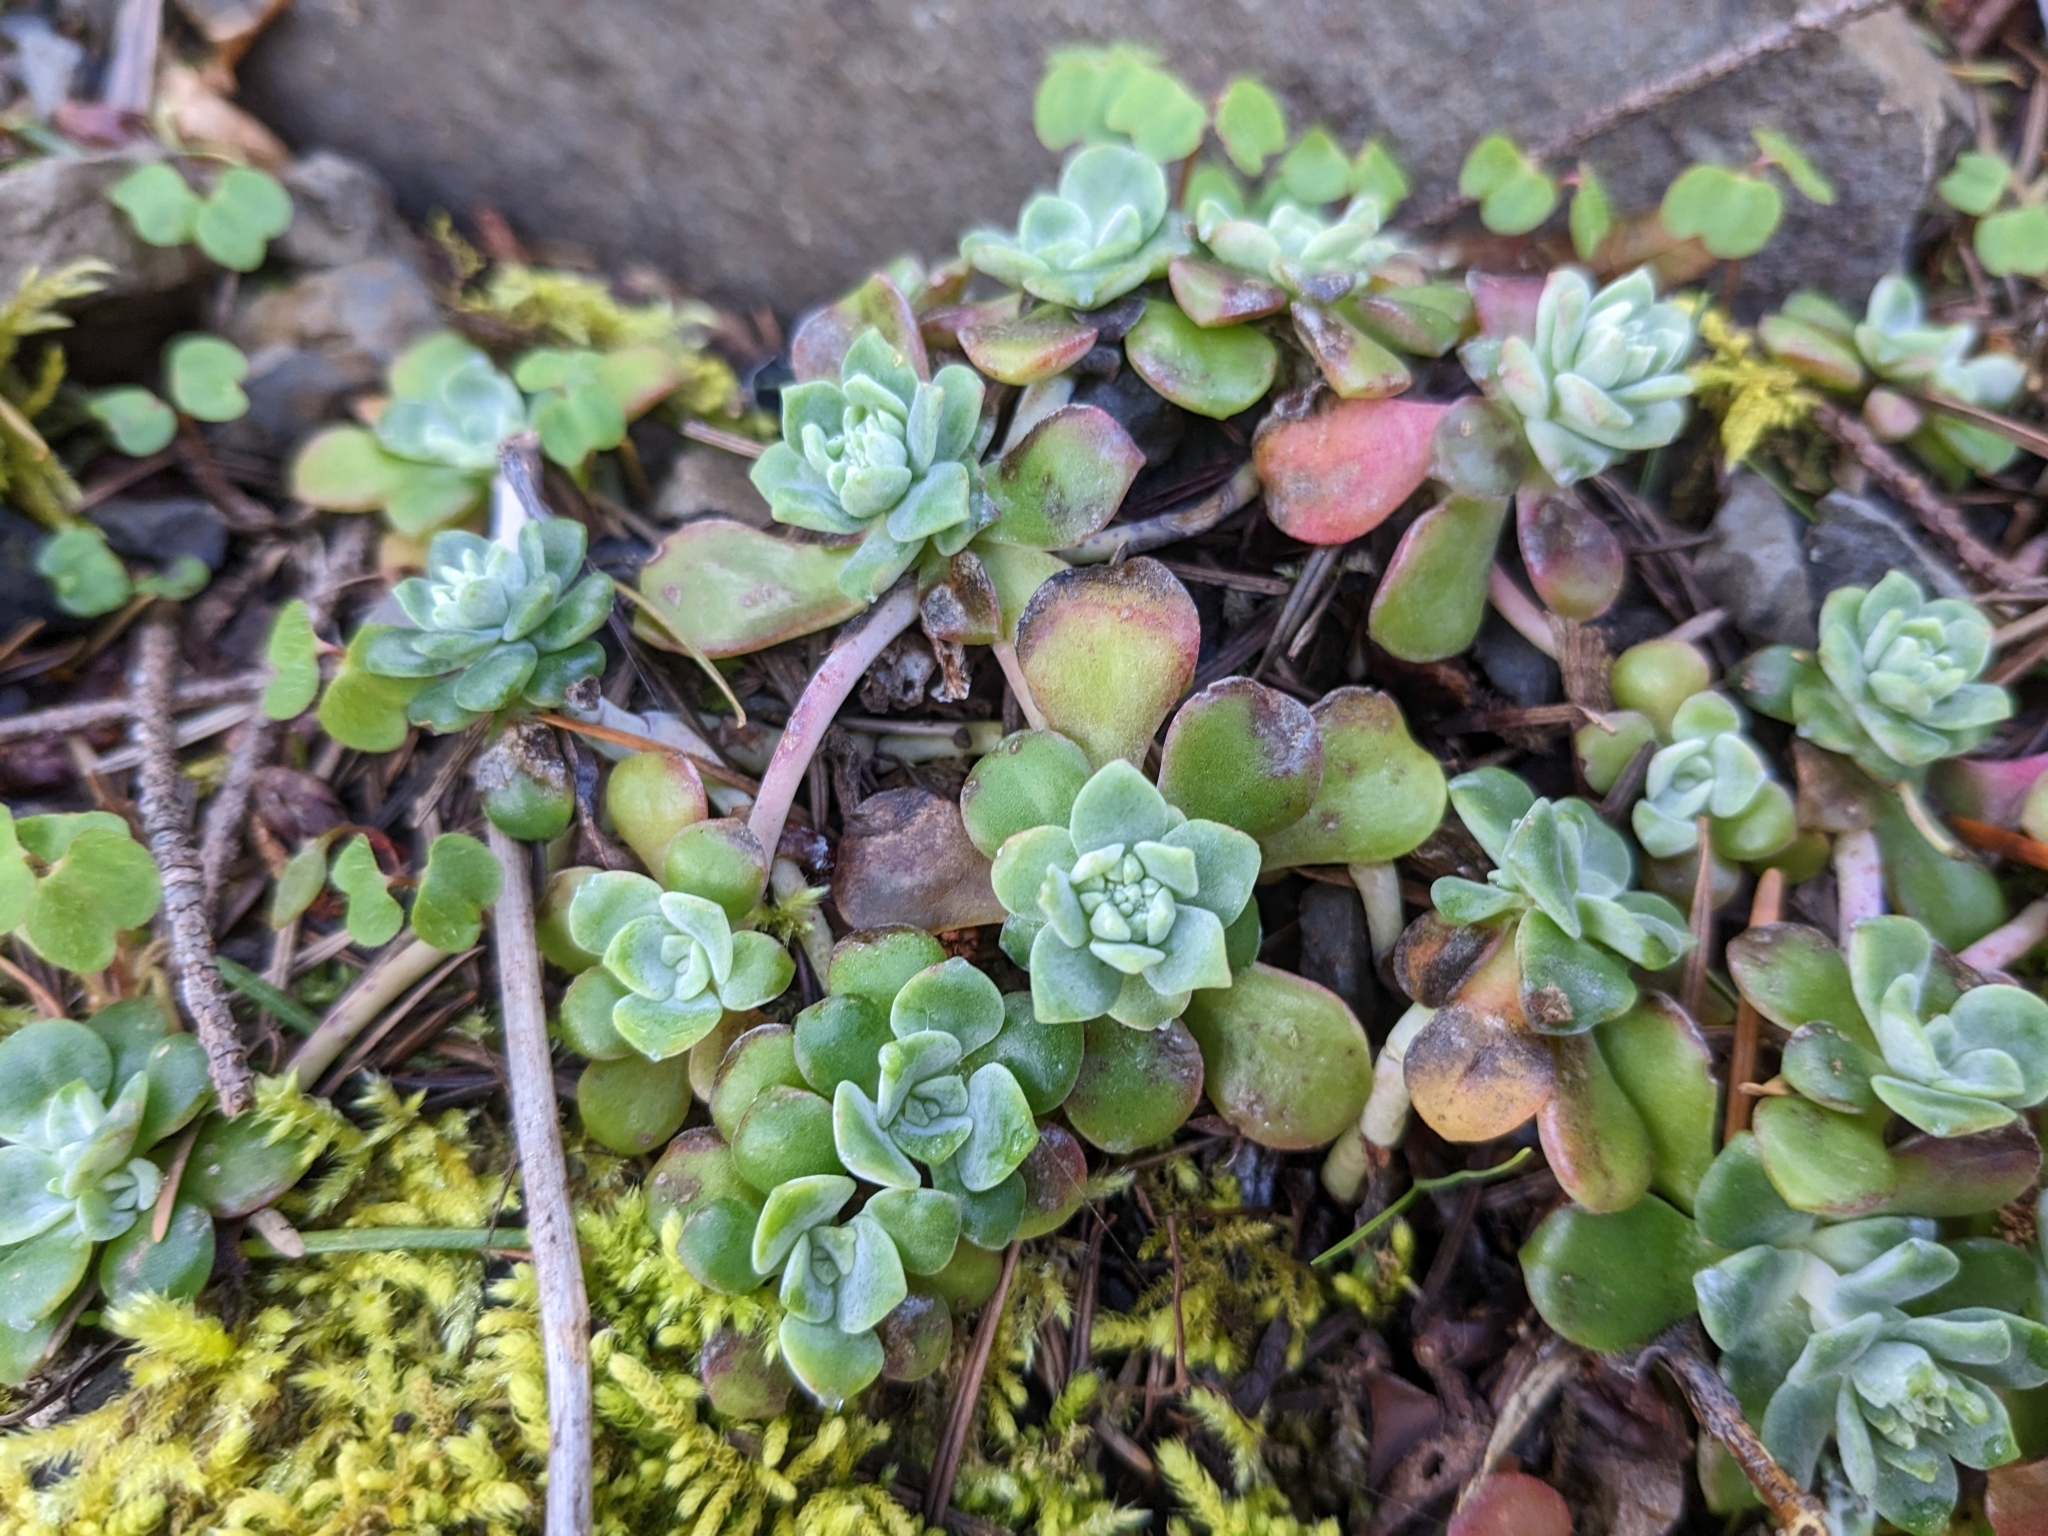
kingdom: Plantae
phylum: Tracheophyta
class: Magnoliopsida
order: Saxifragales
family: Crassulaceae
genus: Sedum
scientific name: Sedum spathulifolium
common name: Colorado stonecrop
